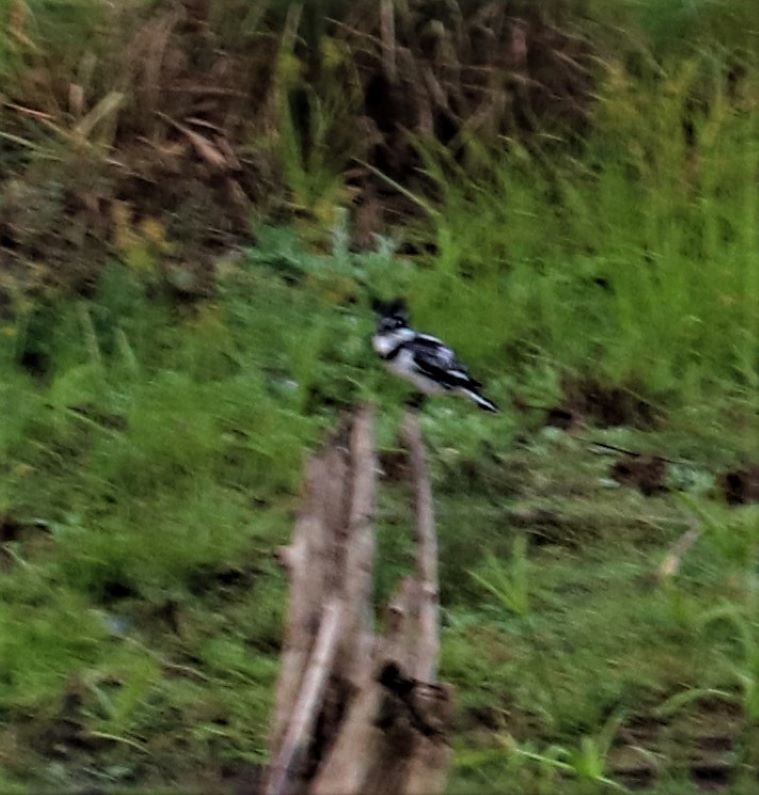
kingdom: Animalia
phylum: Chordata
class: Aves
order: Coraciiformes
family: Alcedinidae
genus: Ceryle
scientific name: Ceryle rudis
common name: Pied kingfisher
